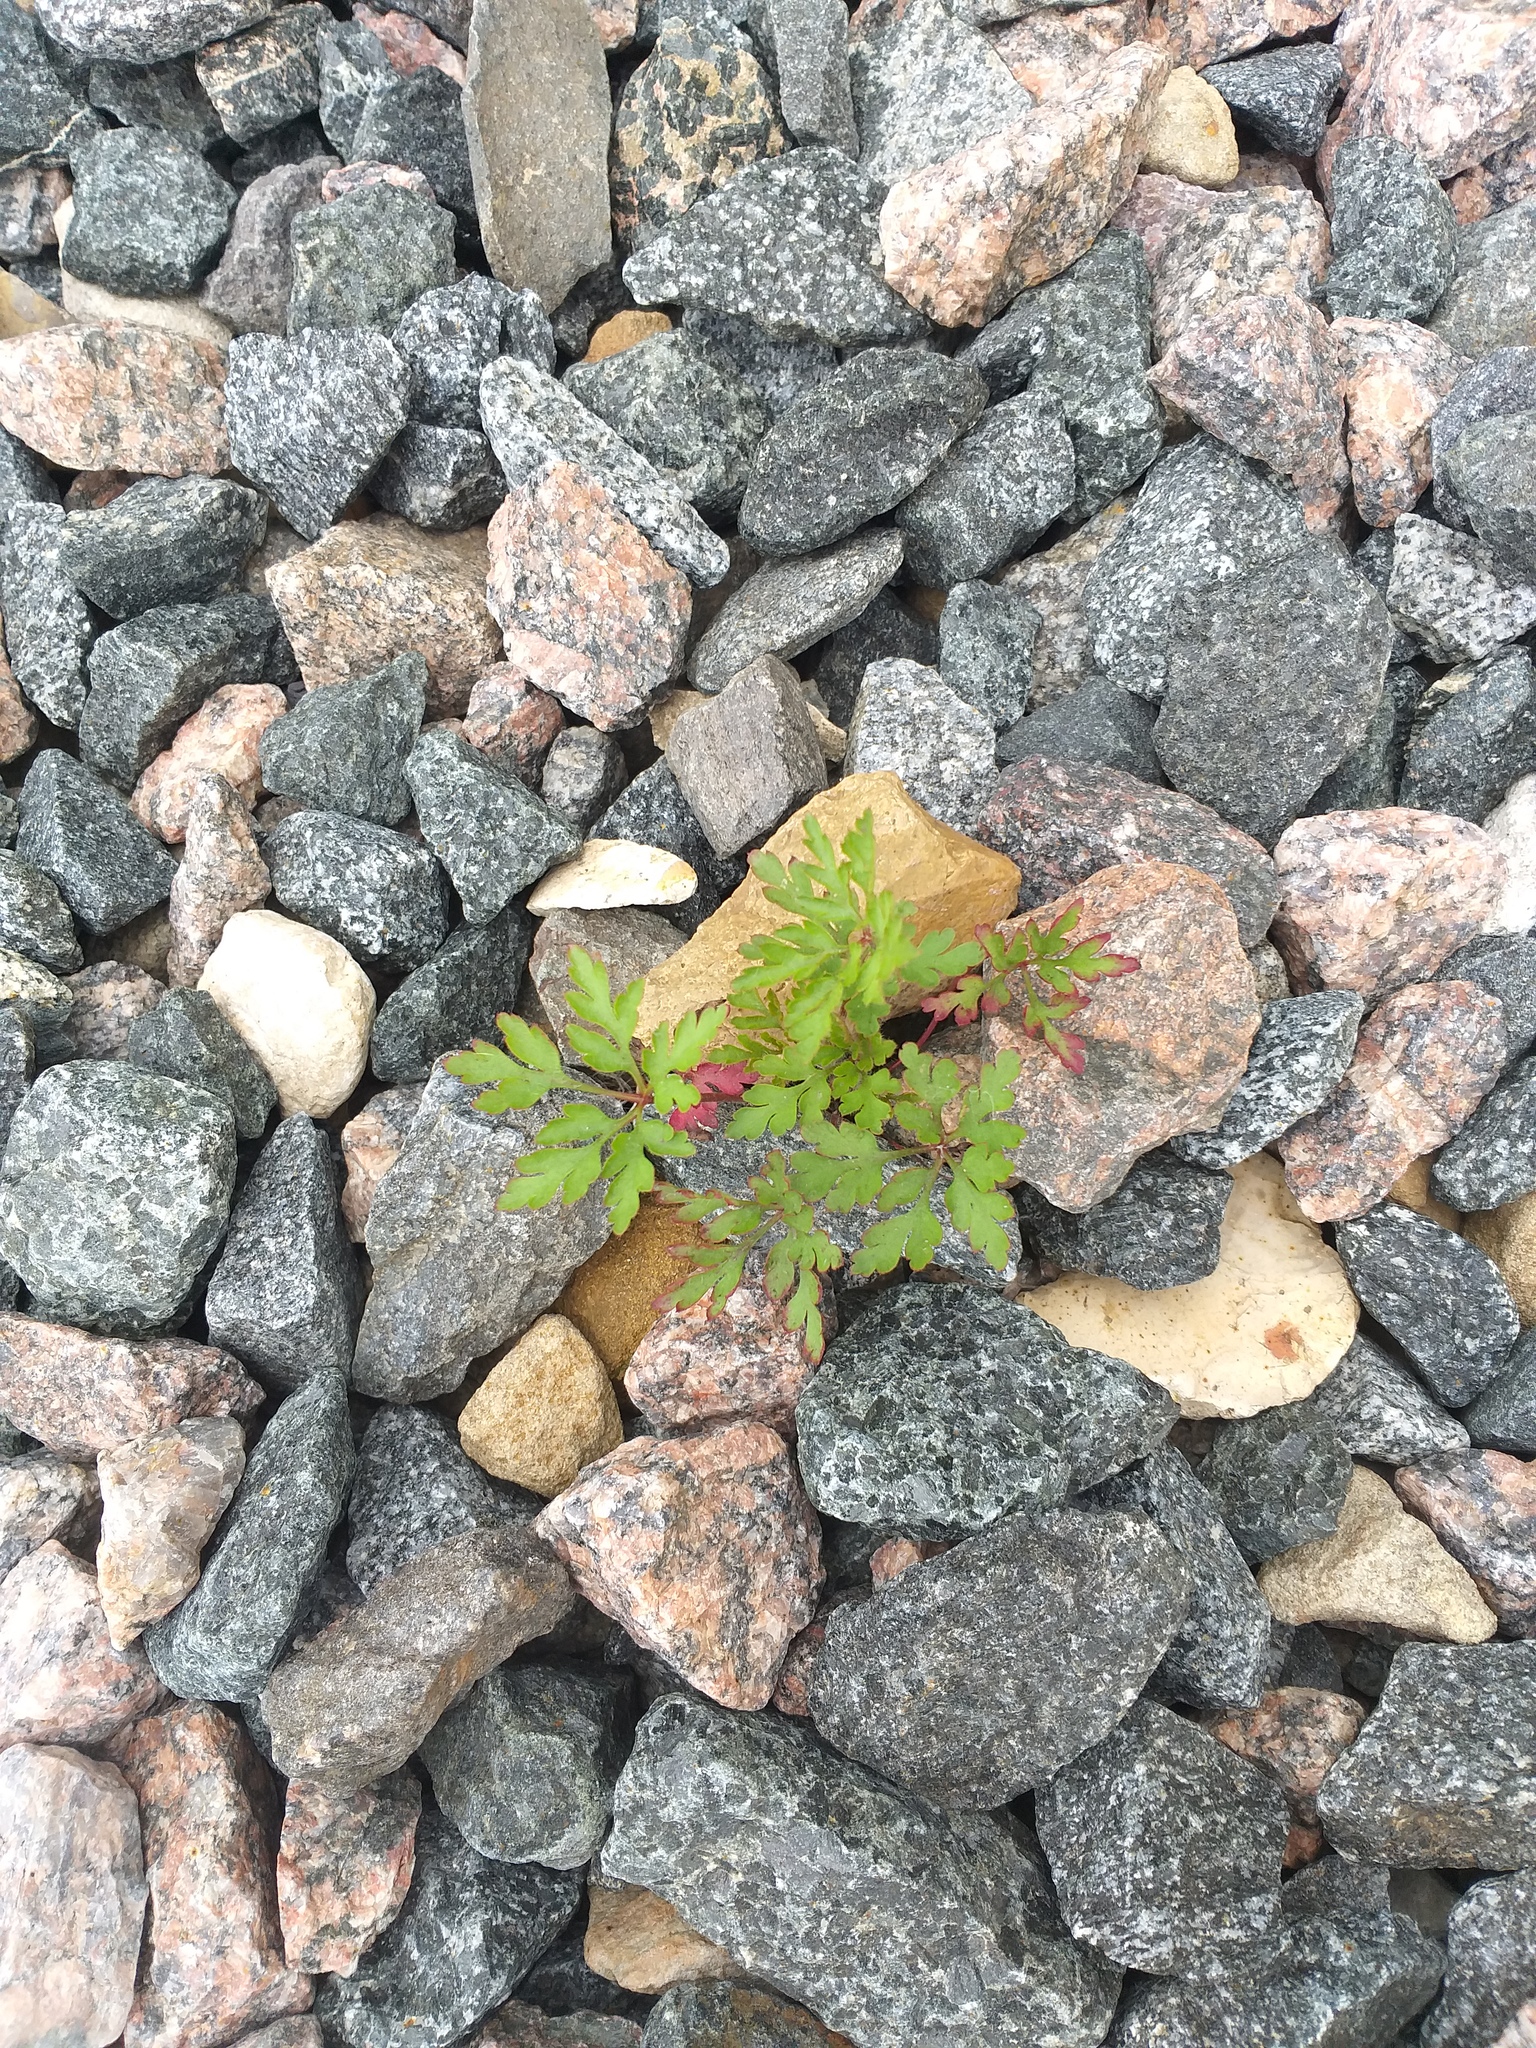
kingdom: Plantae
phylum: Tracheophyta
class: Magnoliopsida
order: Geraniales
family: Geraniaceae
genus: Geranium
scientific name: Geranium robertianum
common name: Herb-robert
